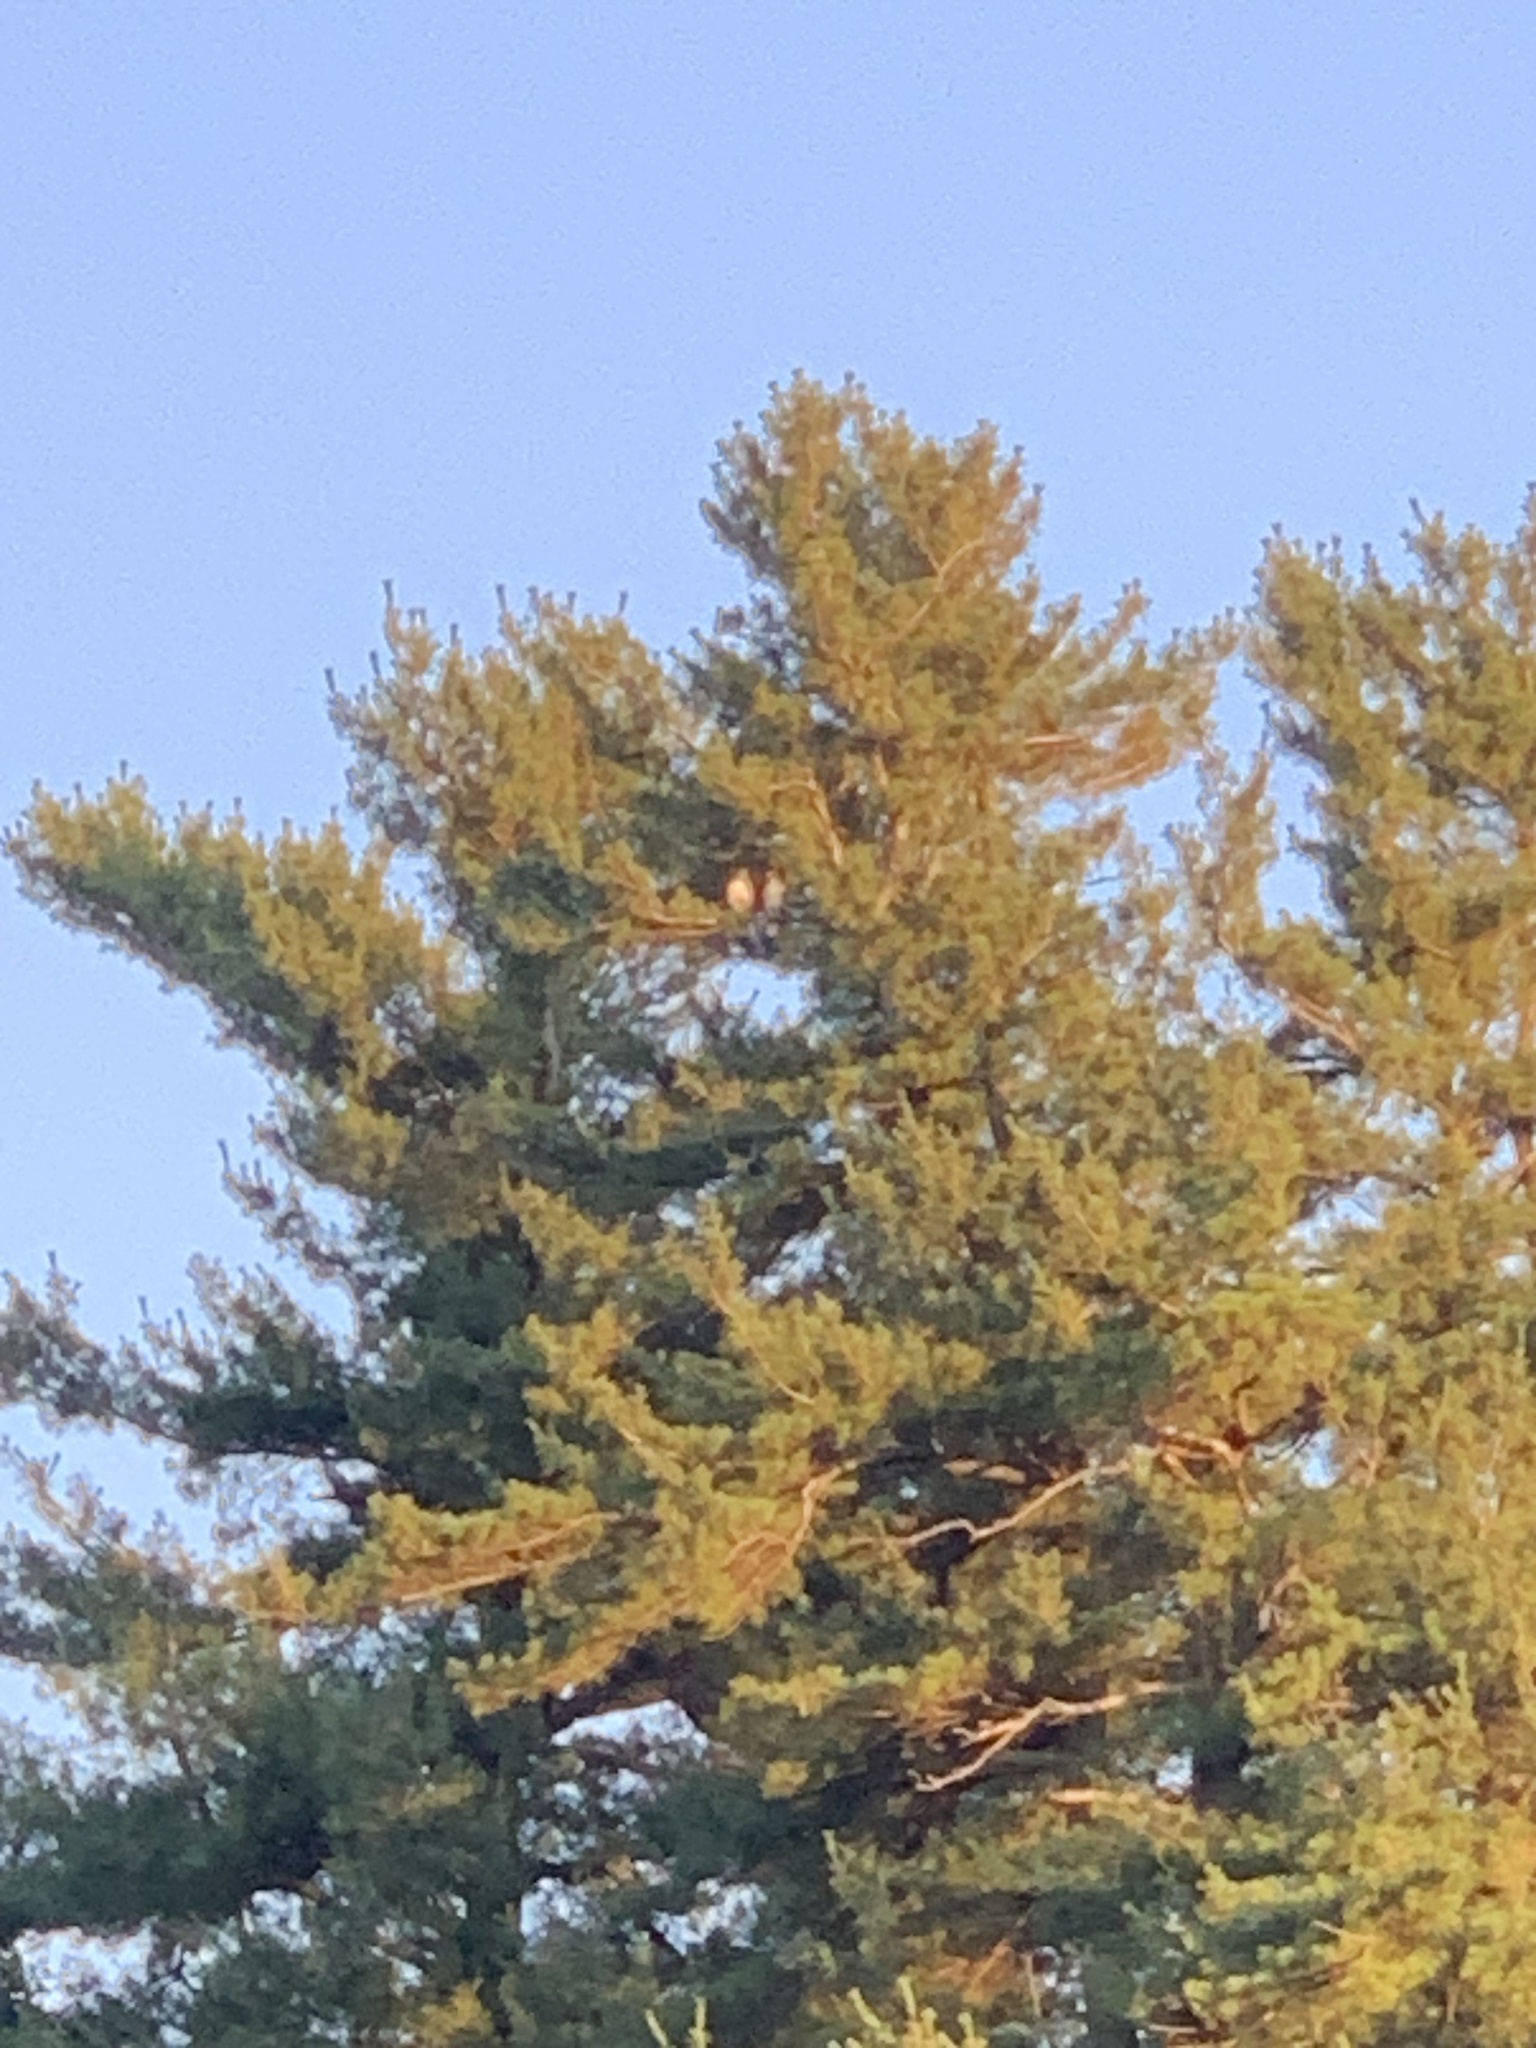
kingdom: Animalia
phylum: Chordata
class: Aves
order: Accipitriformes
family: Accipitridae
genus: Buteo
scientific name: Buteo jamaicensis
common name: Red-tailed hawk
